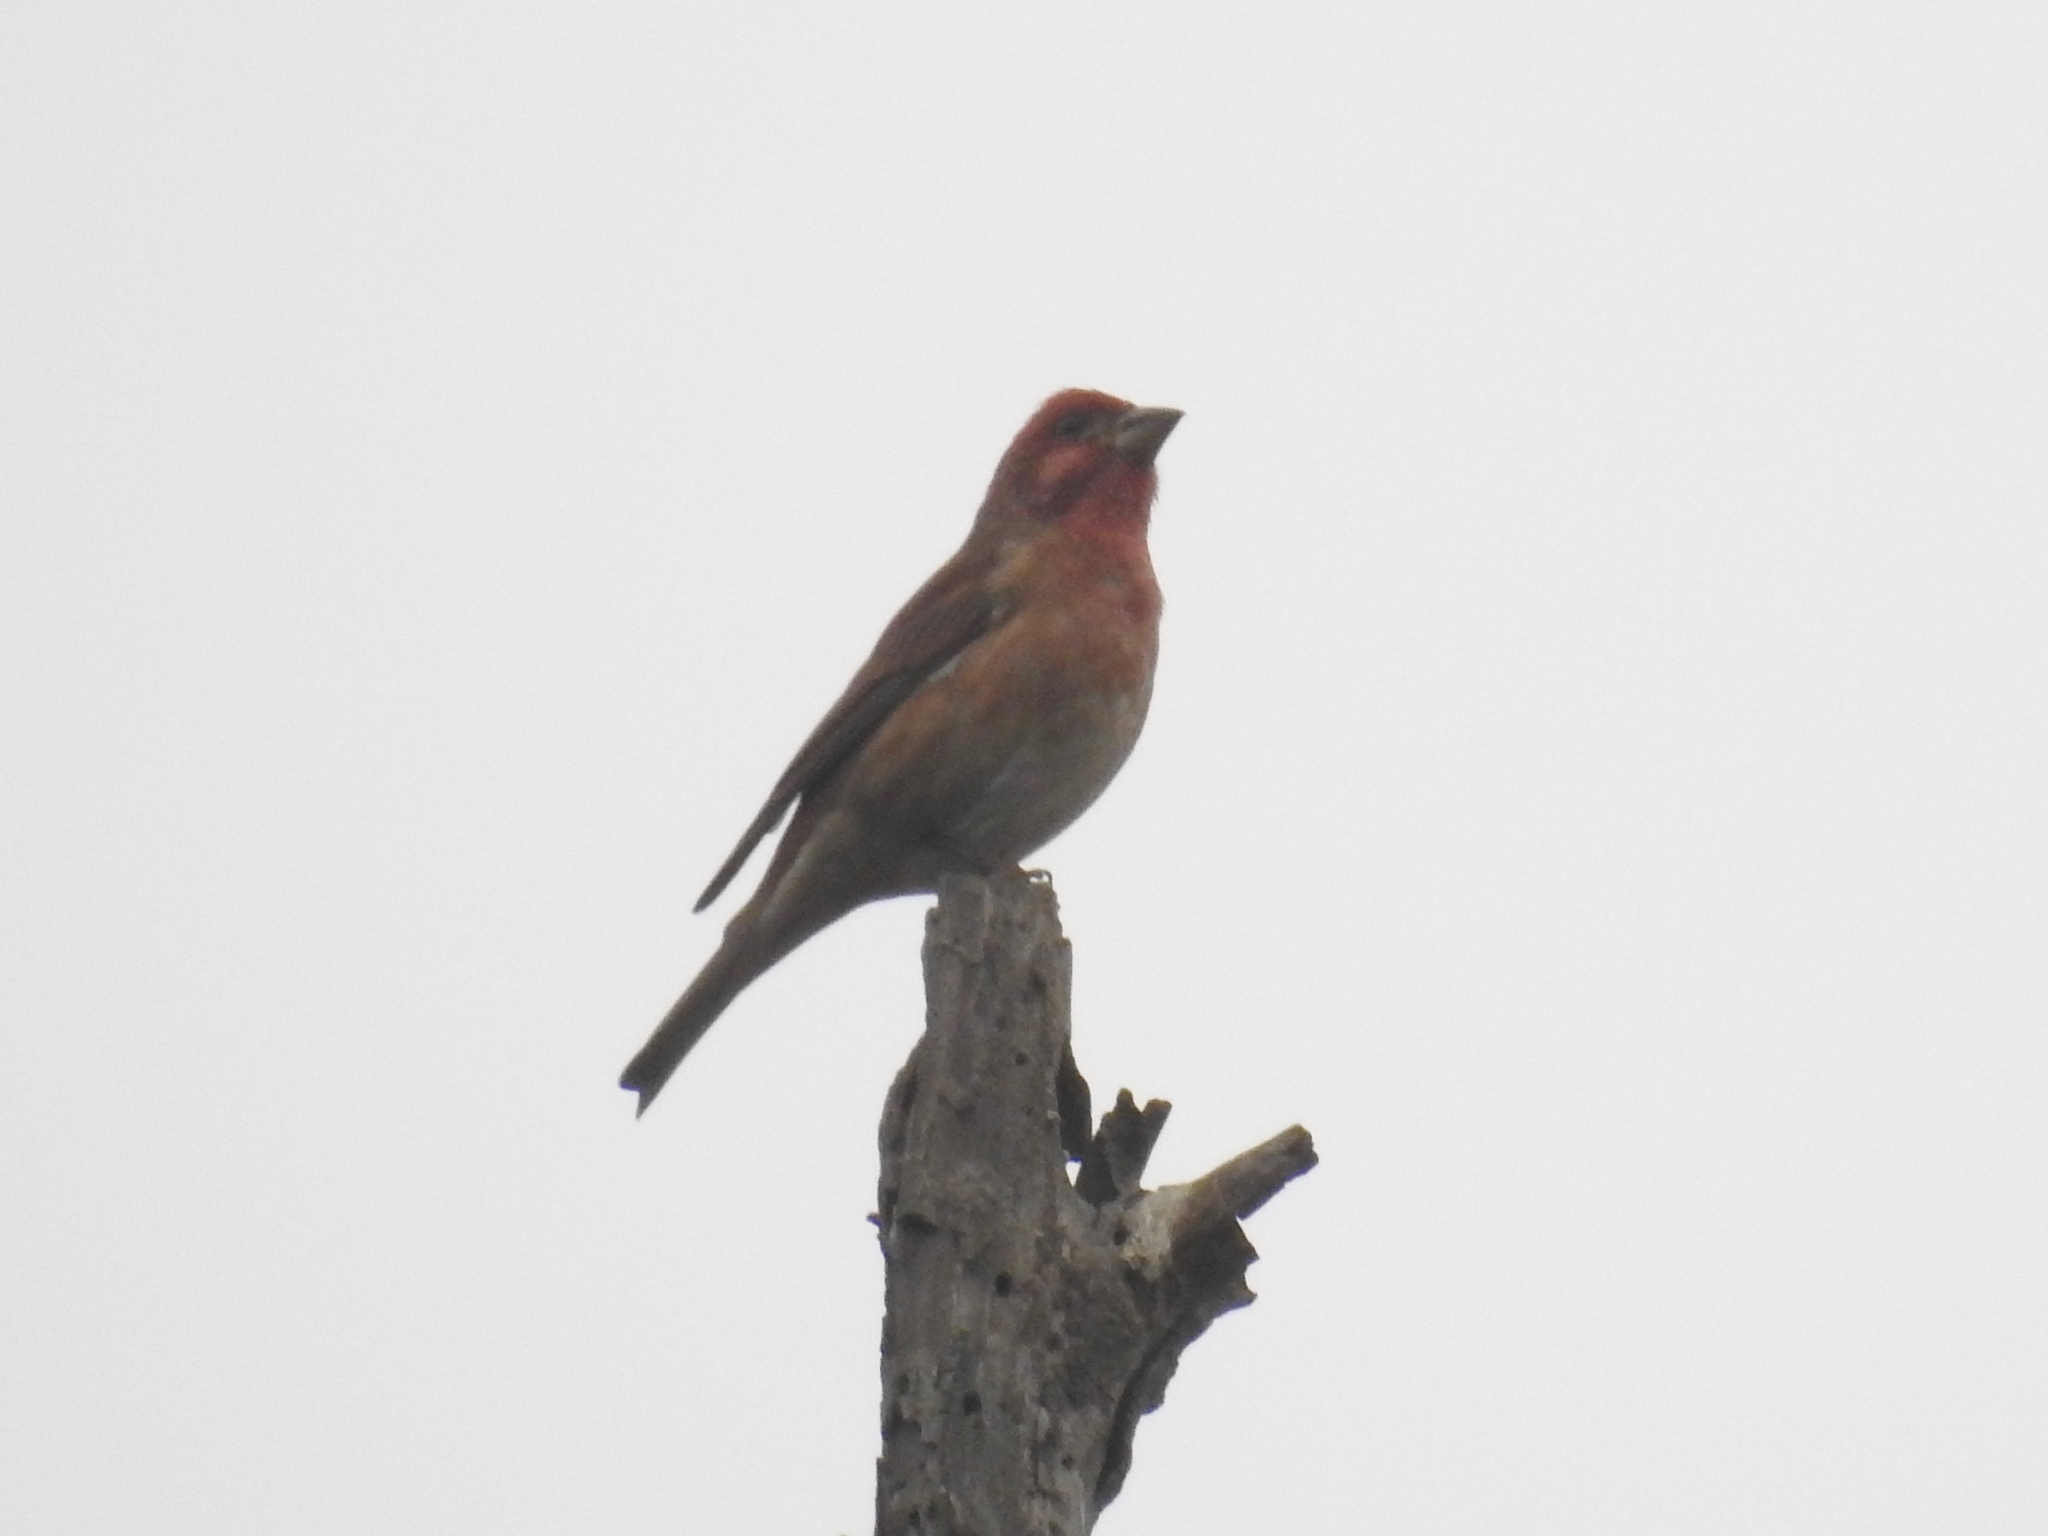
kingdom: Animalia
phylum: Chordata
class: Aves
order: Passeriformes
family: Fringillidae
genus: Haemorhous
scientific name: Haemorhous purpureus
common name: Purple finch
